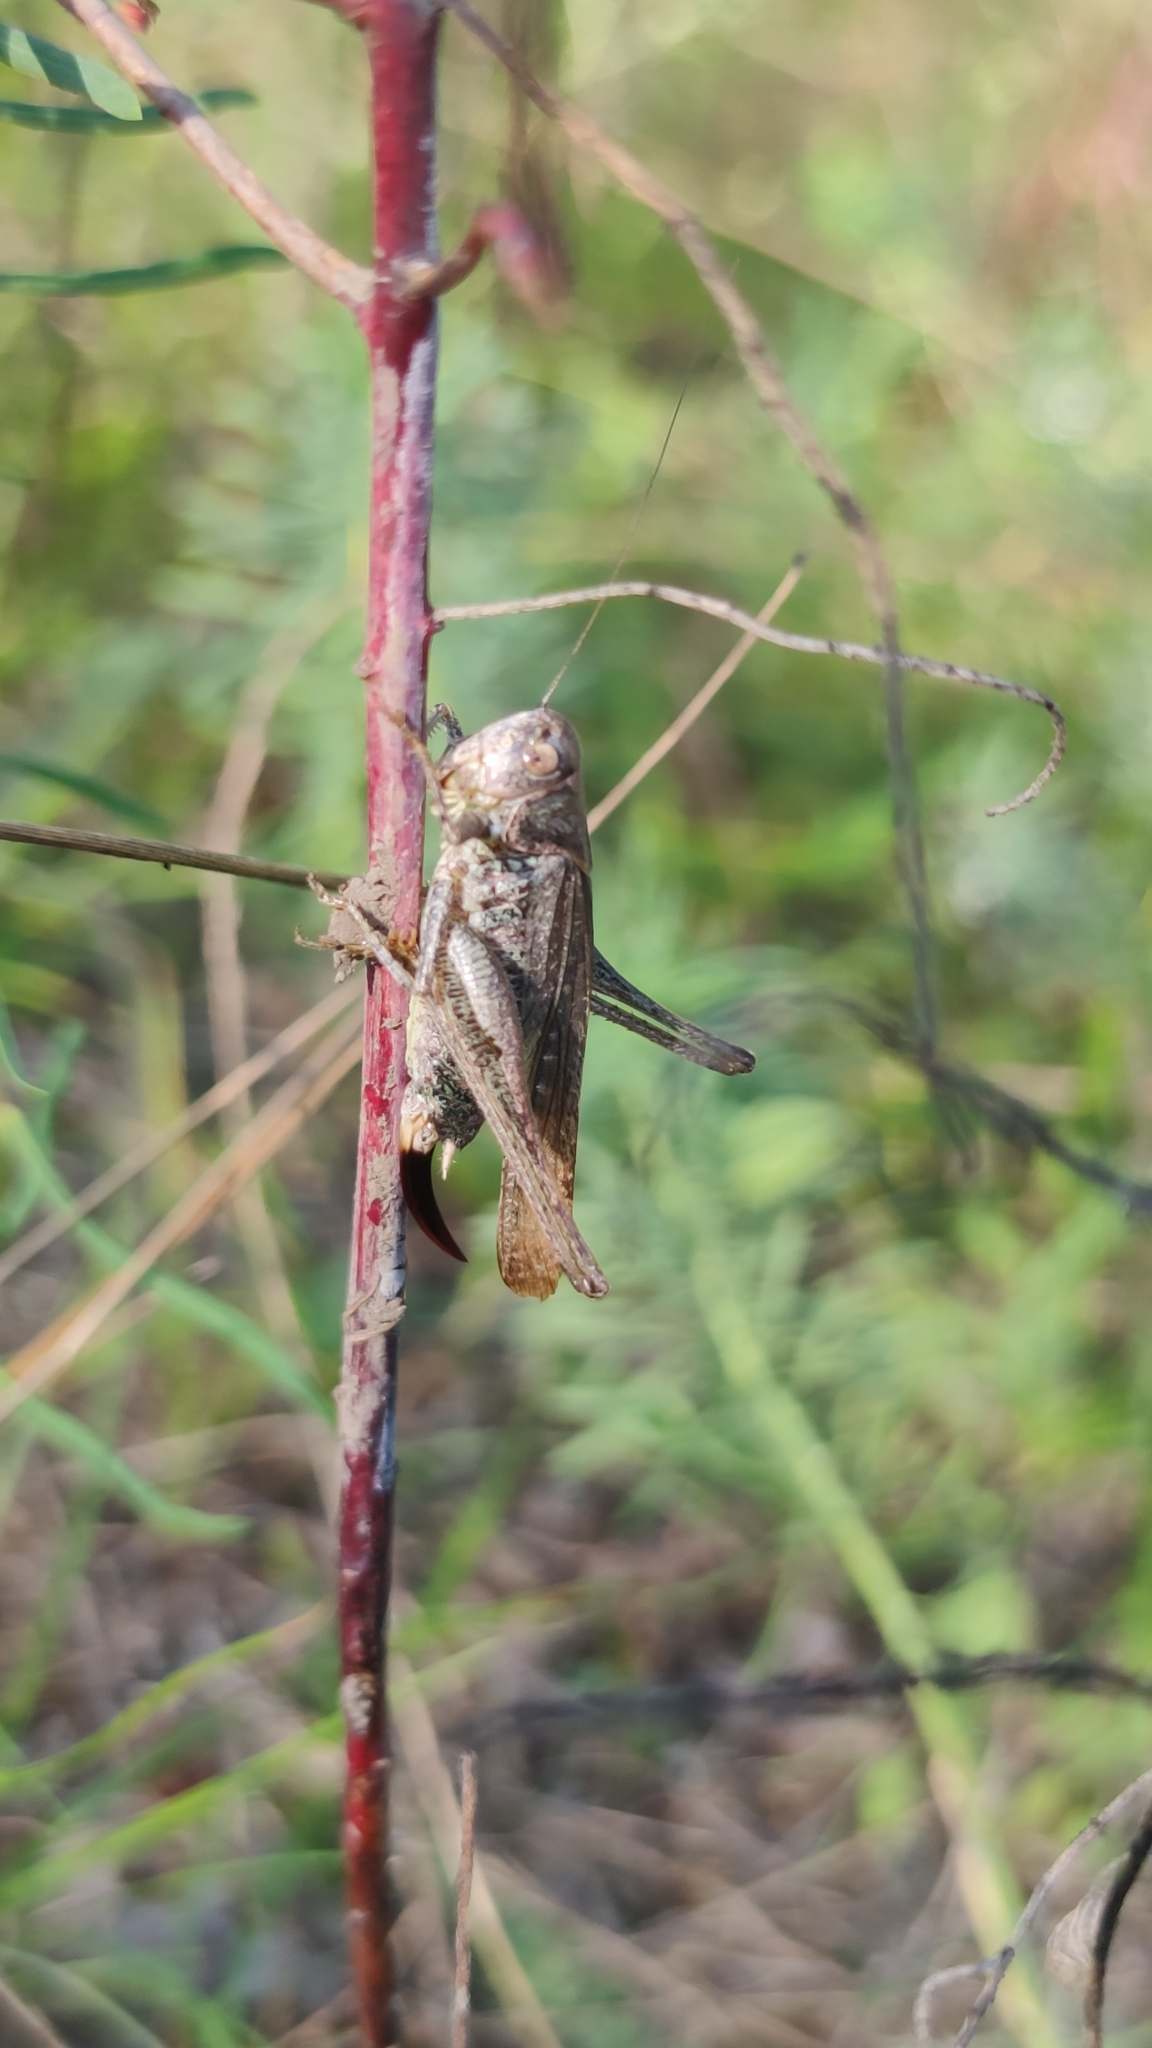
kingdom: Animalia
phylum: Arthropoda
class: Insecta
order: Orthoptera
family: Tettigoniidae
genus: Platycleis
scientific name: Platycleis grisea
